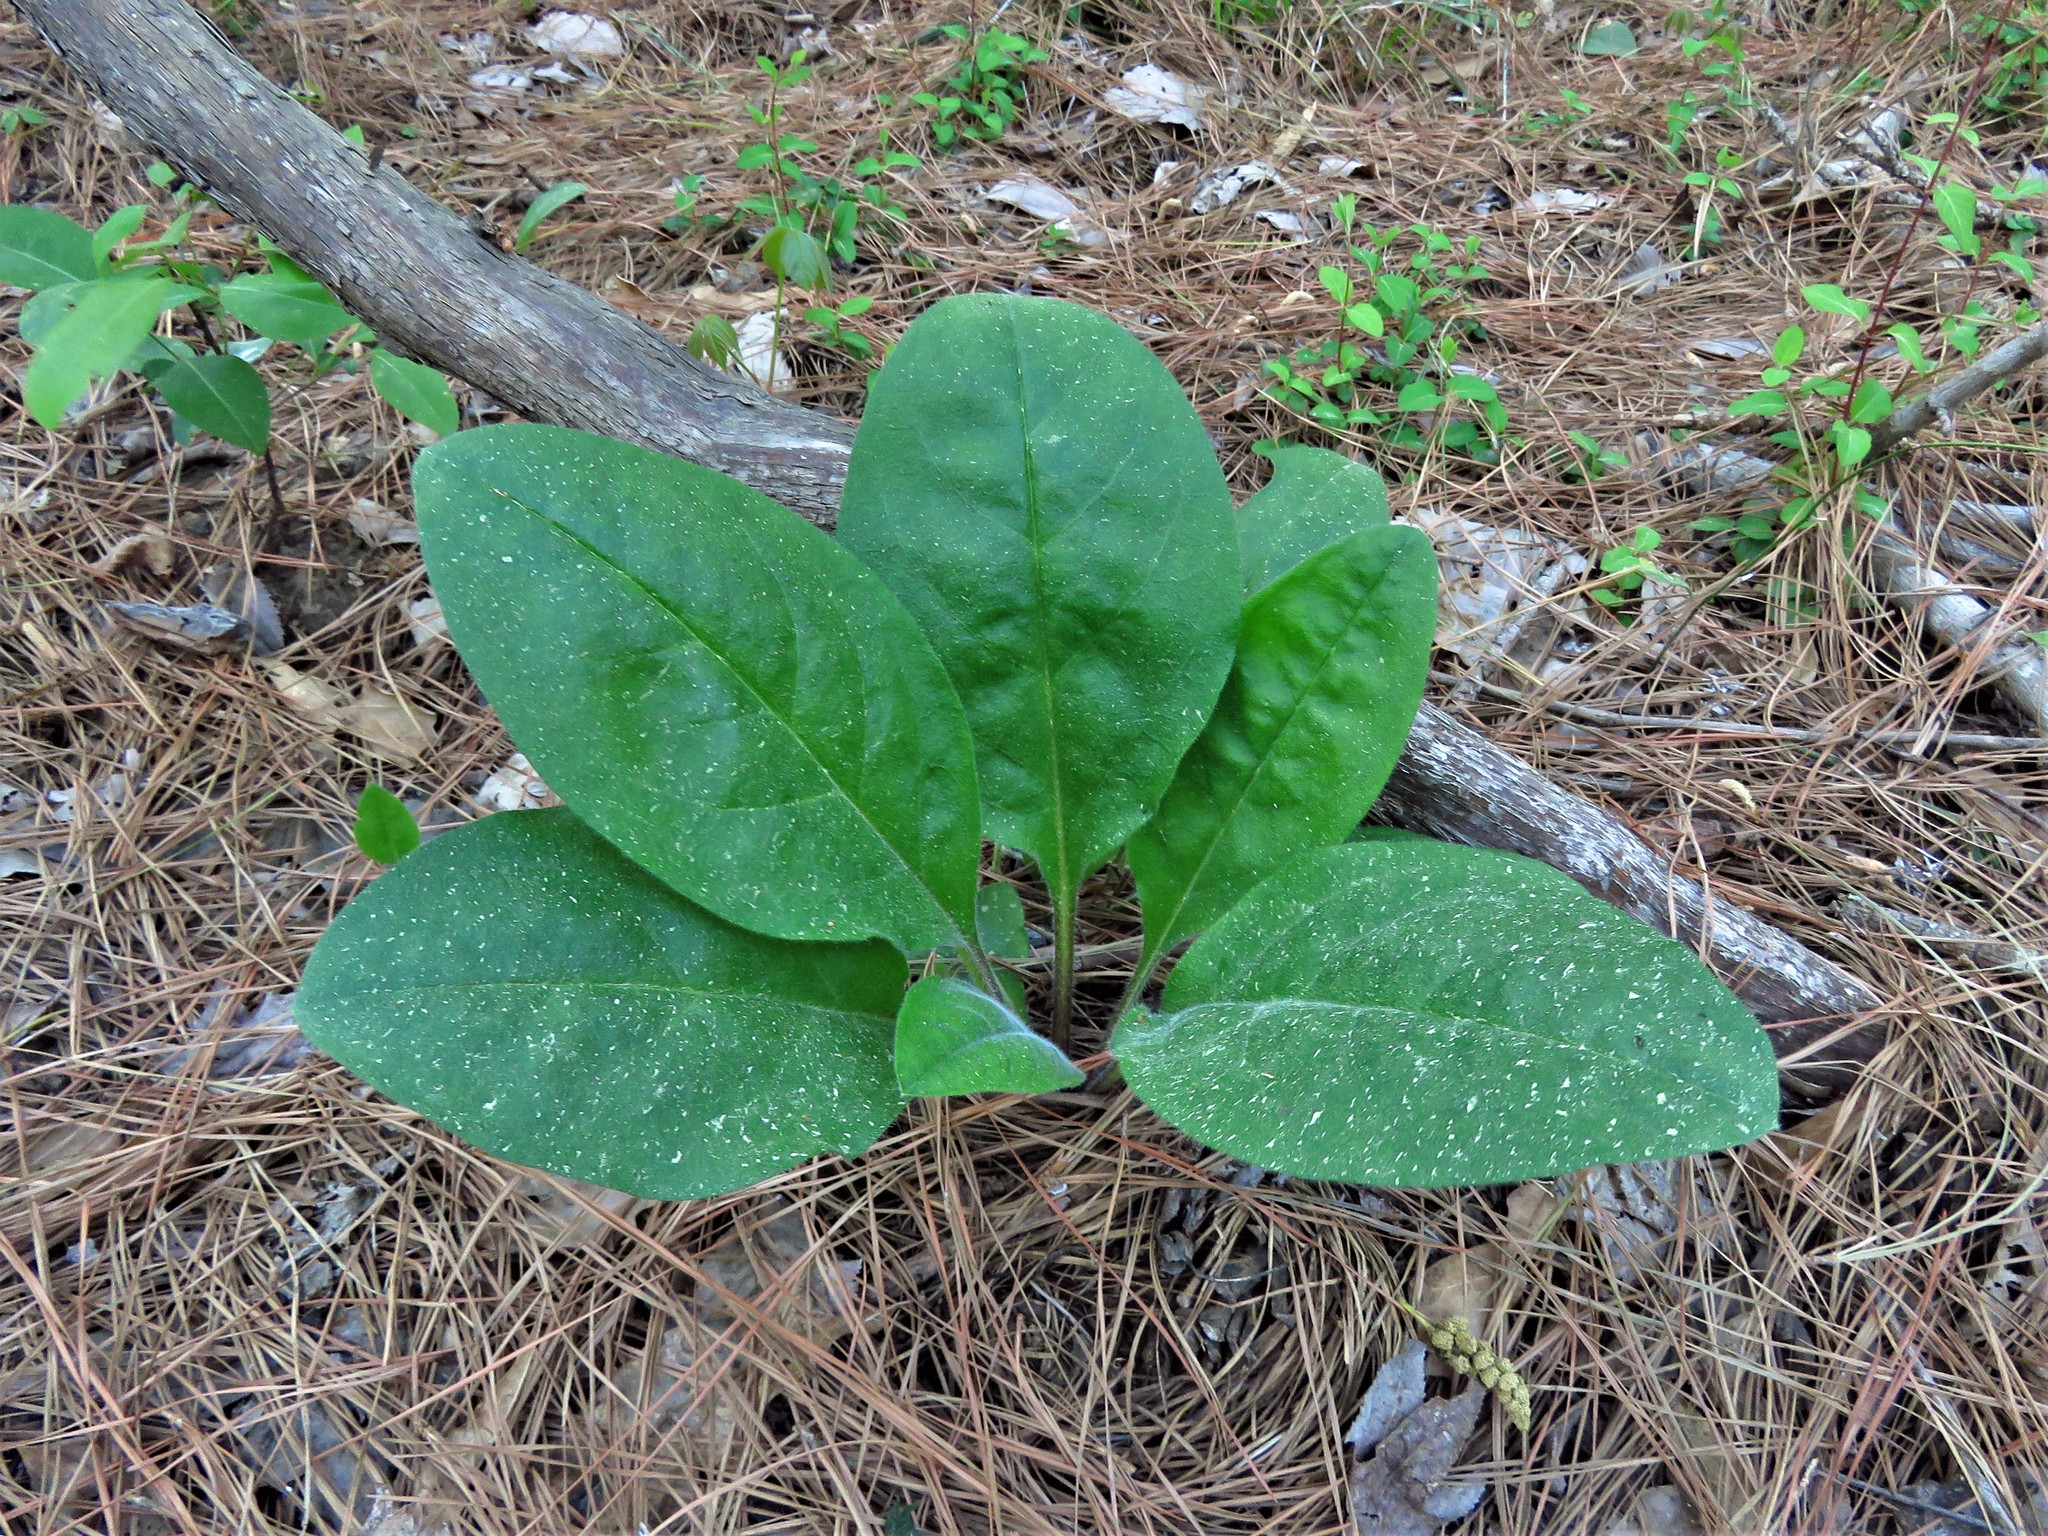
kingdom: Plantae
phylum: Tracheophyta
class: Magnoliopsida
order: Boraginales
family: Boraginaceae
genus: Andersonglossum
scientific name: Andersonglossum virginianum
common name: Wild comfrey
